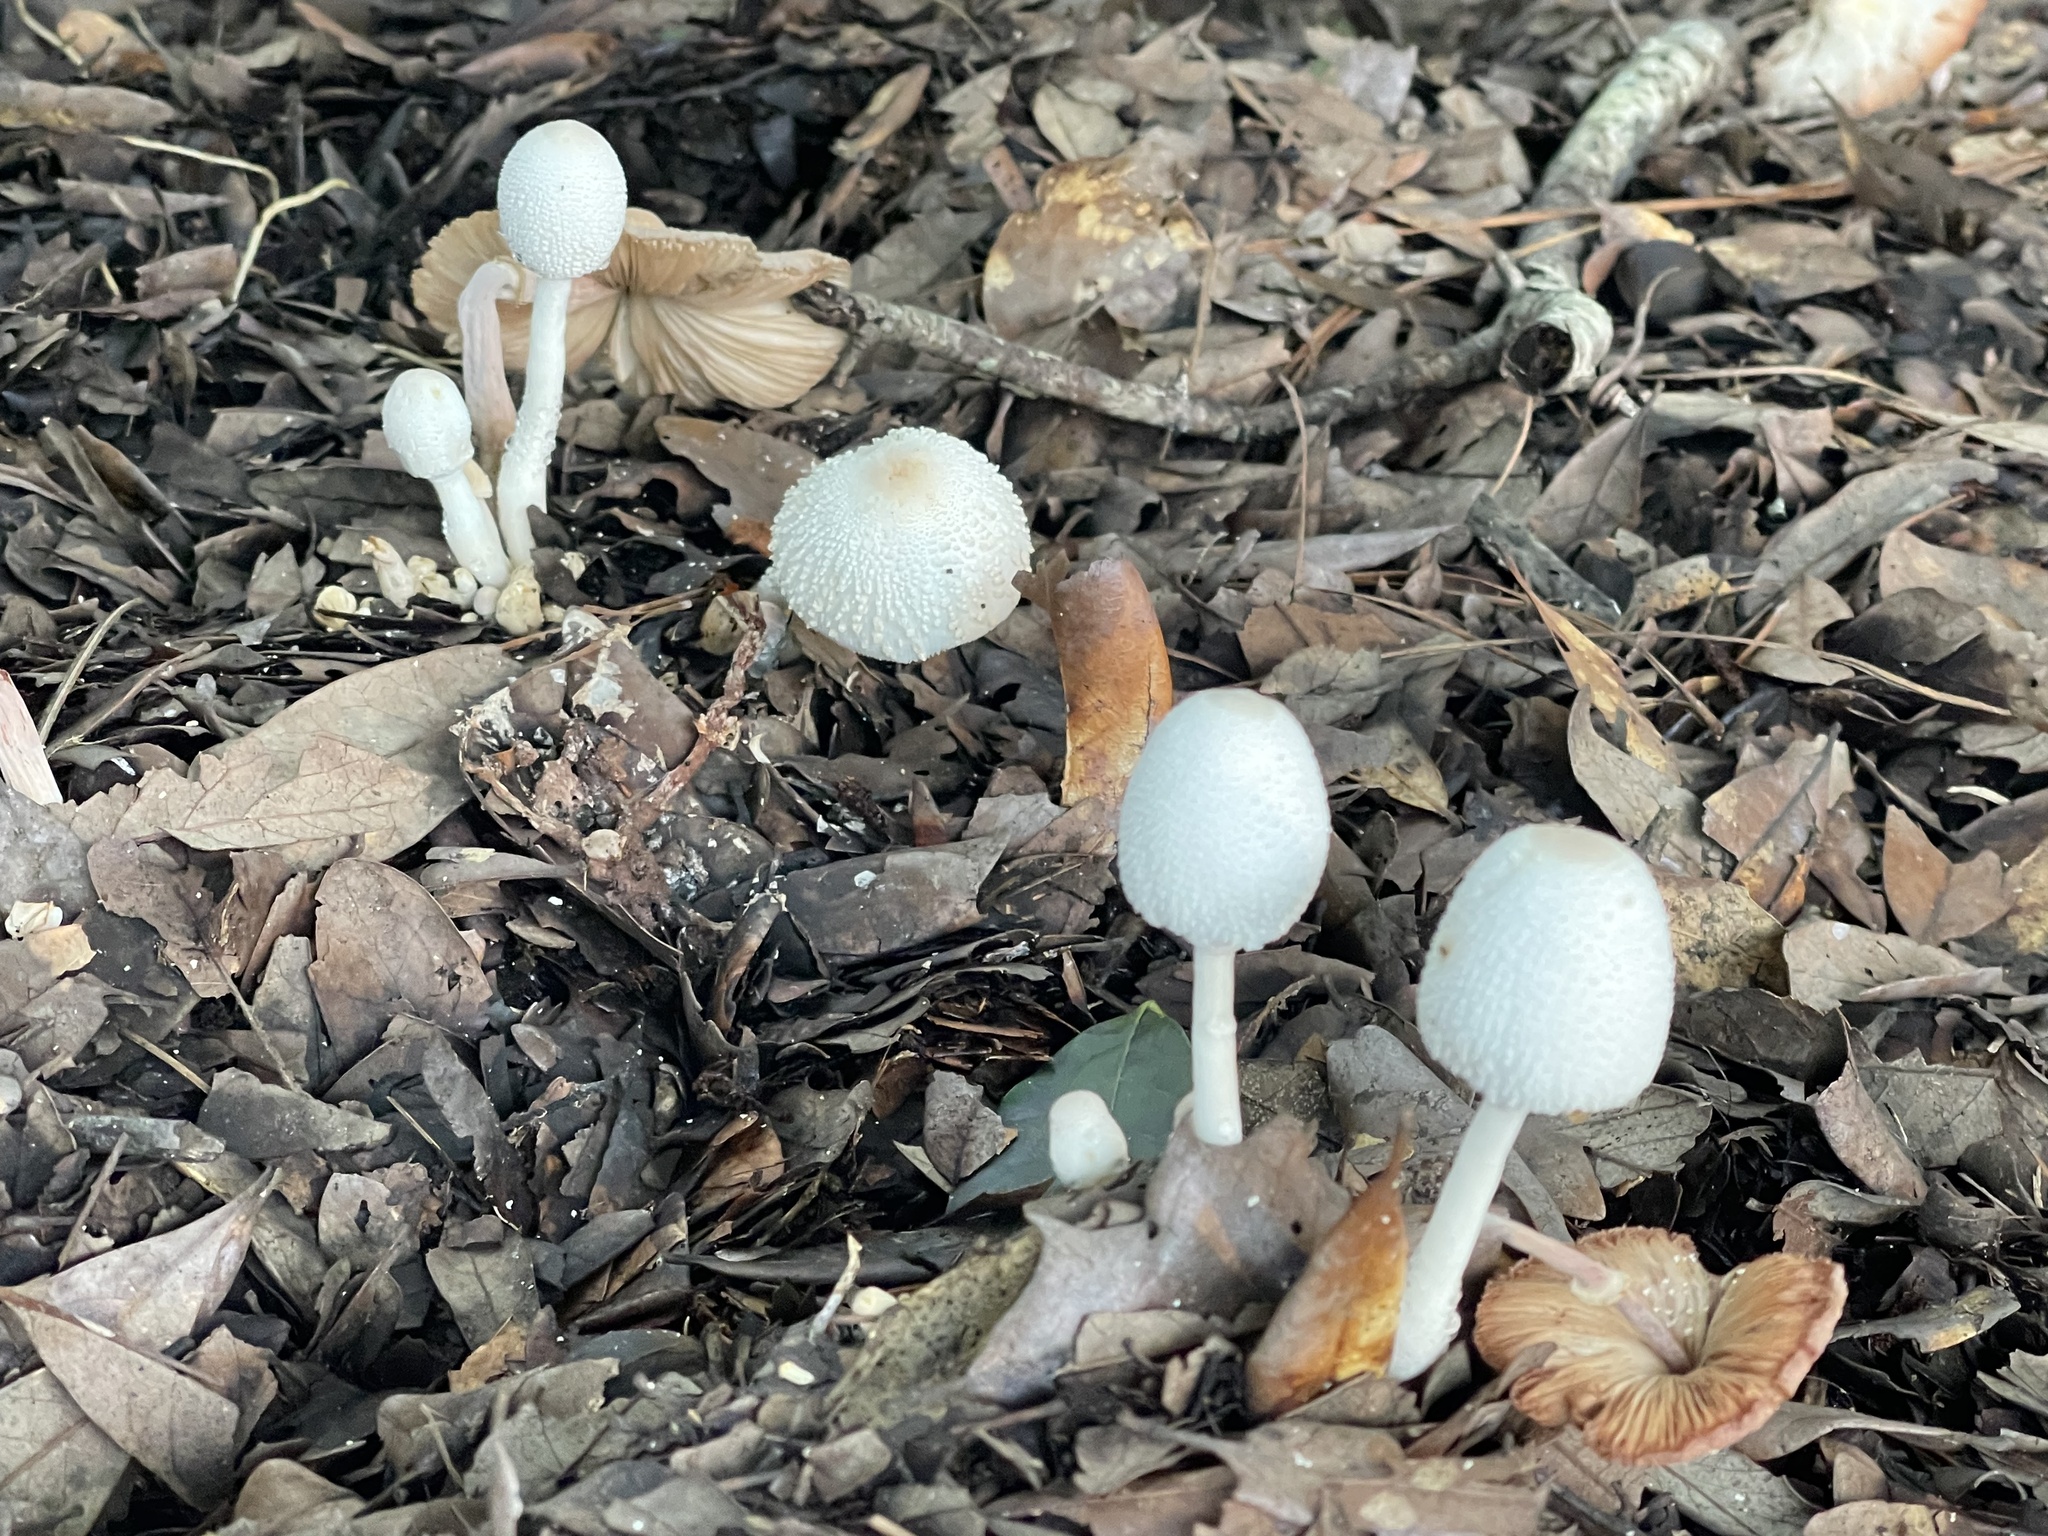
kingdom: Fungi
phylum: Basidiomycota
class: Agaricomycetes
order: Agaricales
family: Agaricaceae
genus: Leucocoprinus
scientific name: Leucocoprinus cepistipes
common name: Onion-stalk parasol
